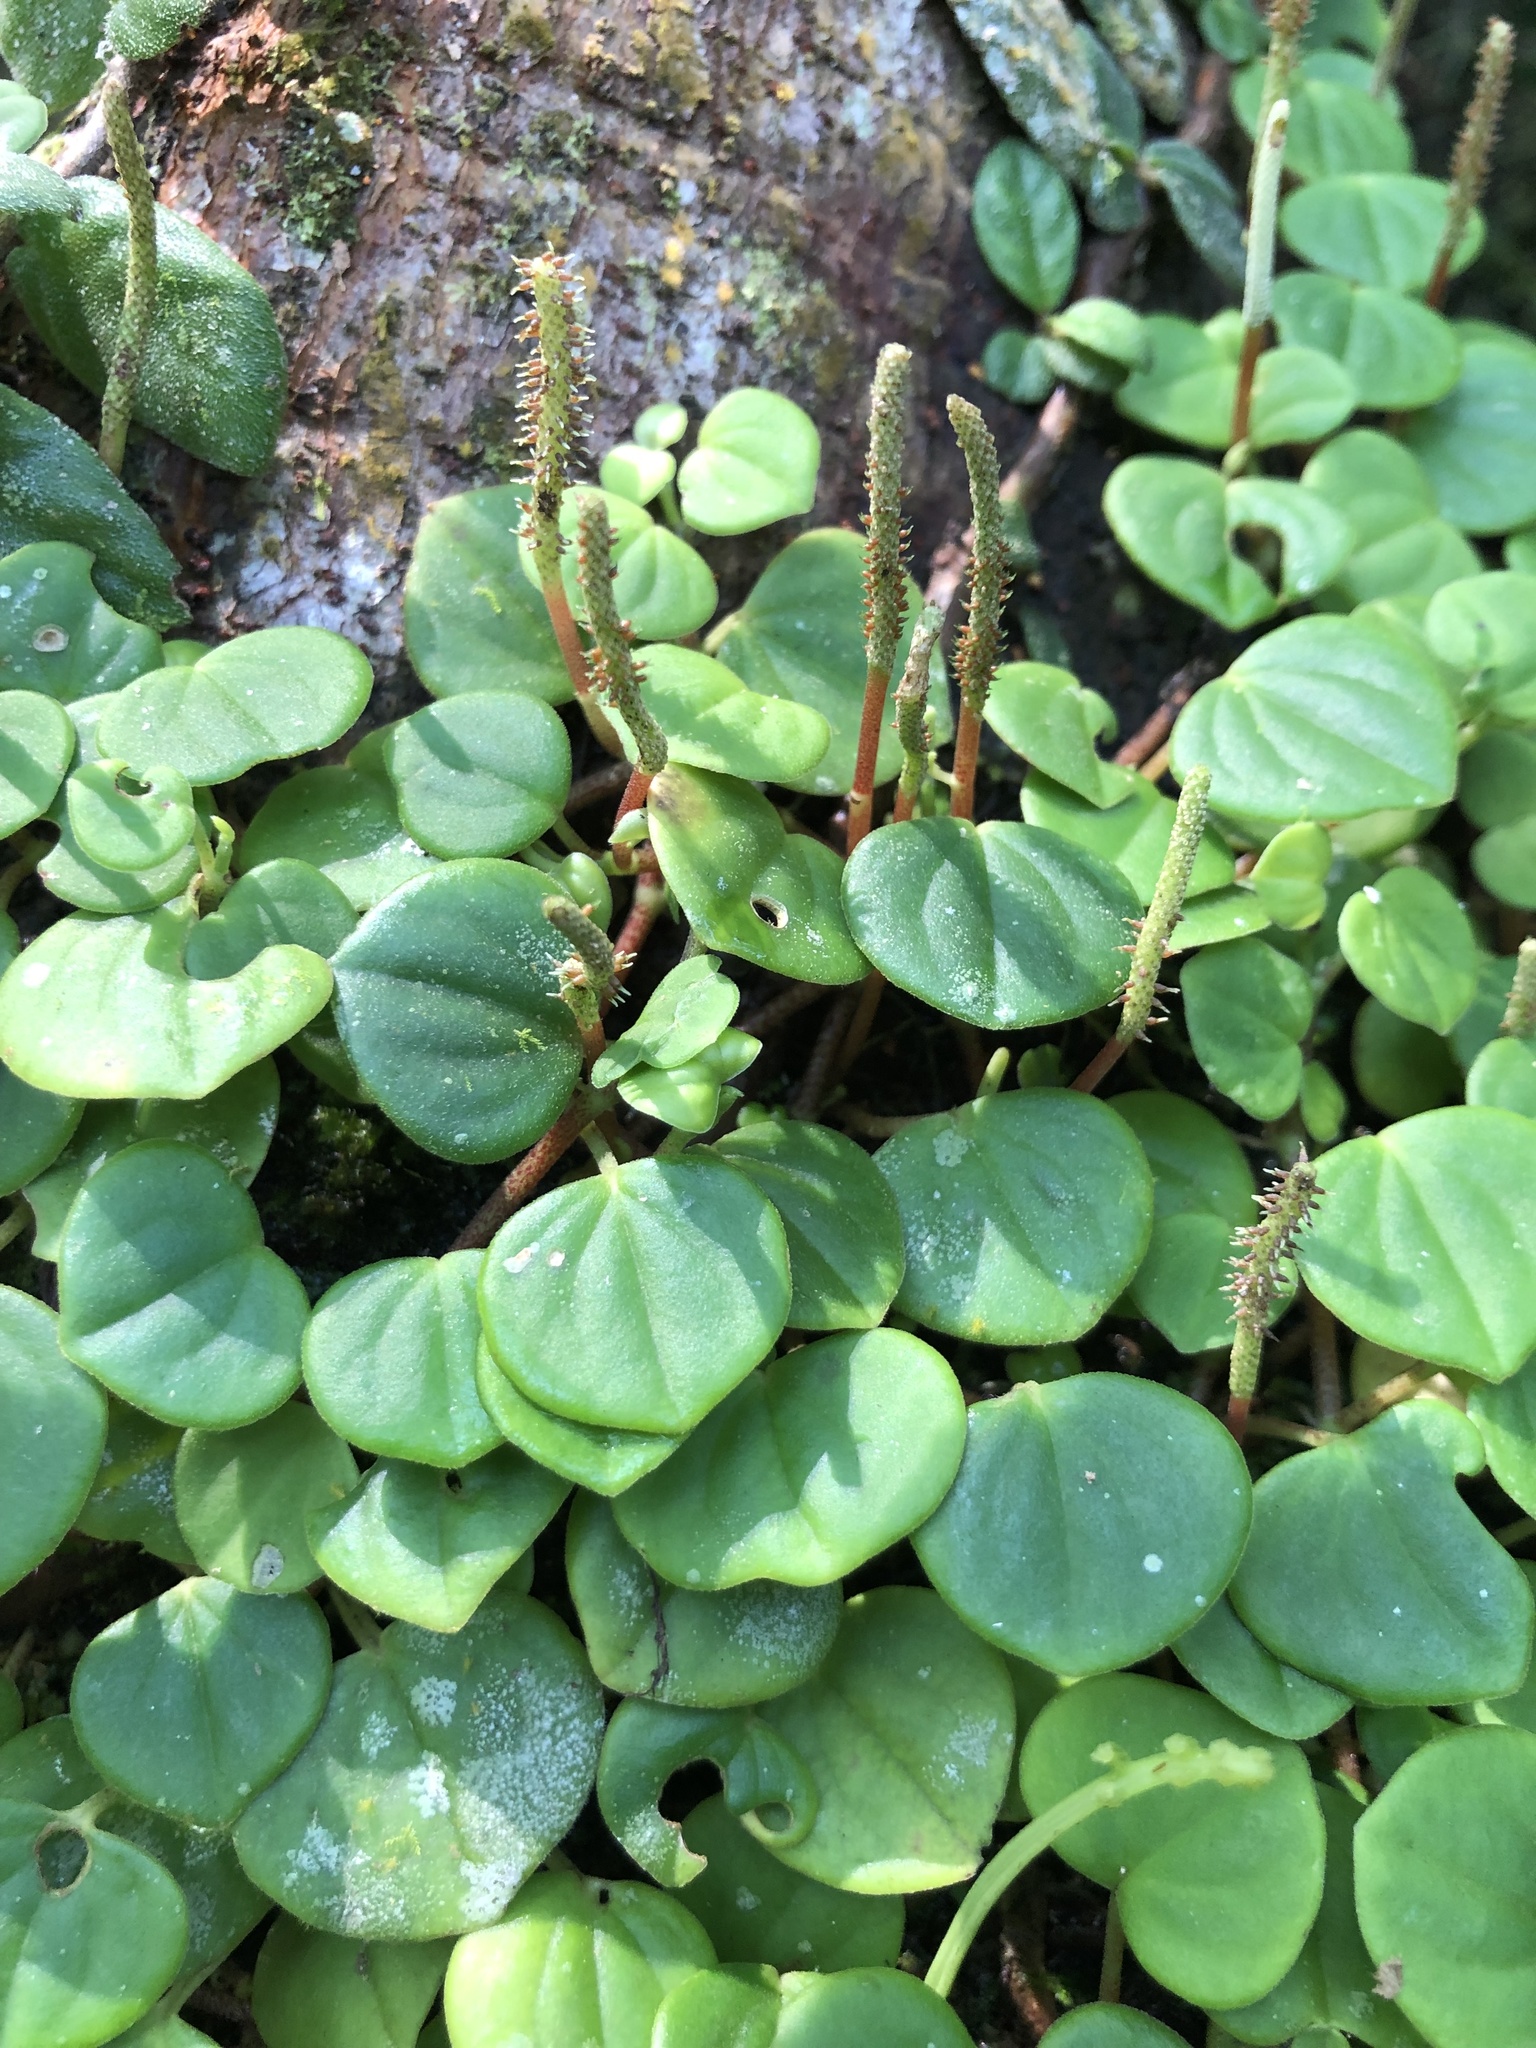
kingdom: Plantae
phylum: Tracheophyta
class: Magnoliopsida
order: Piperales
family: Piperaceae
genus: Peperomia
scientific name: Peperomia serpens
